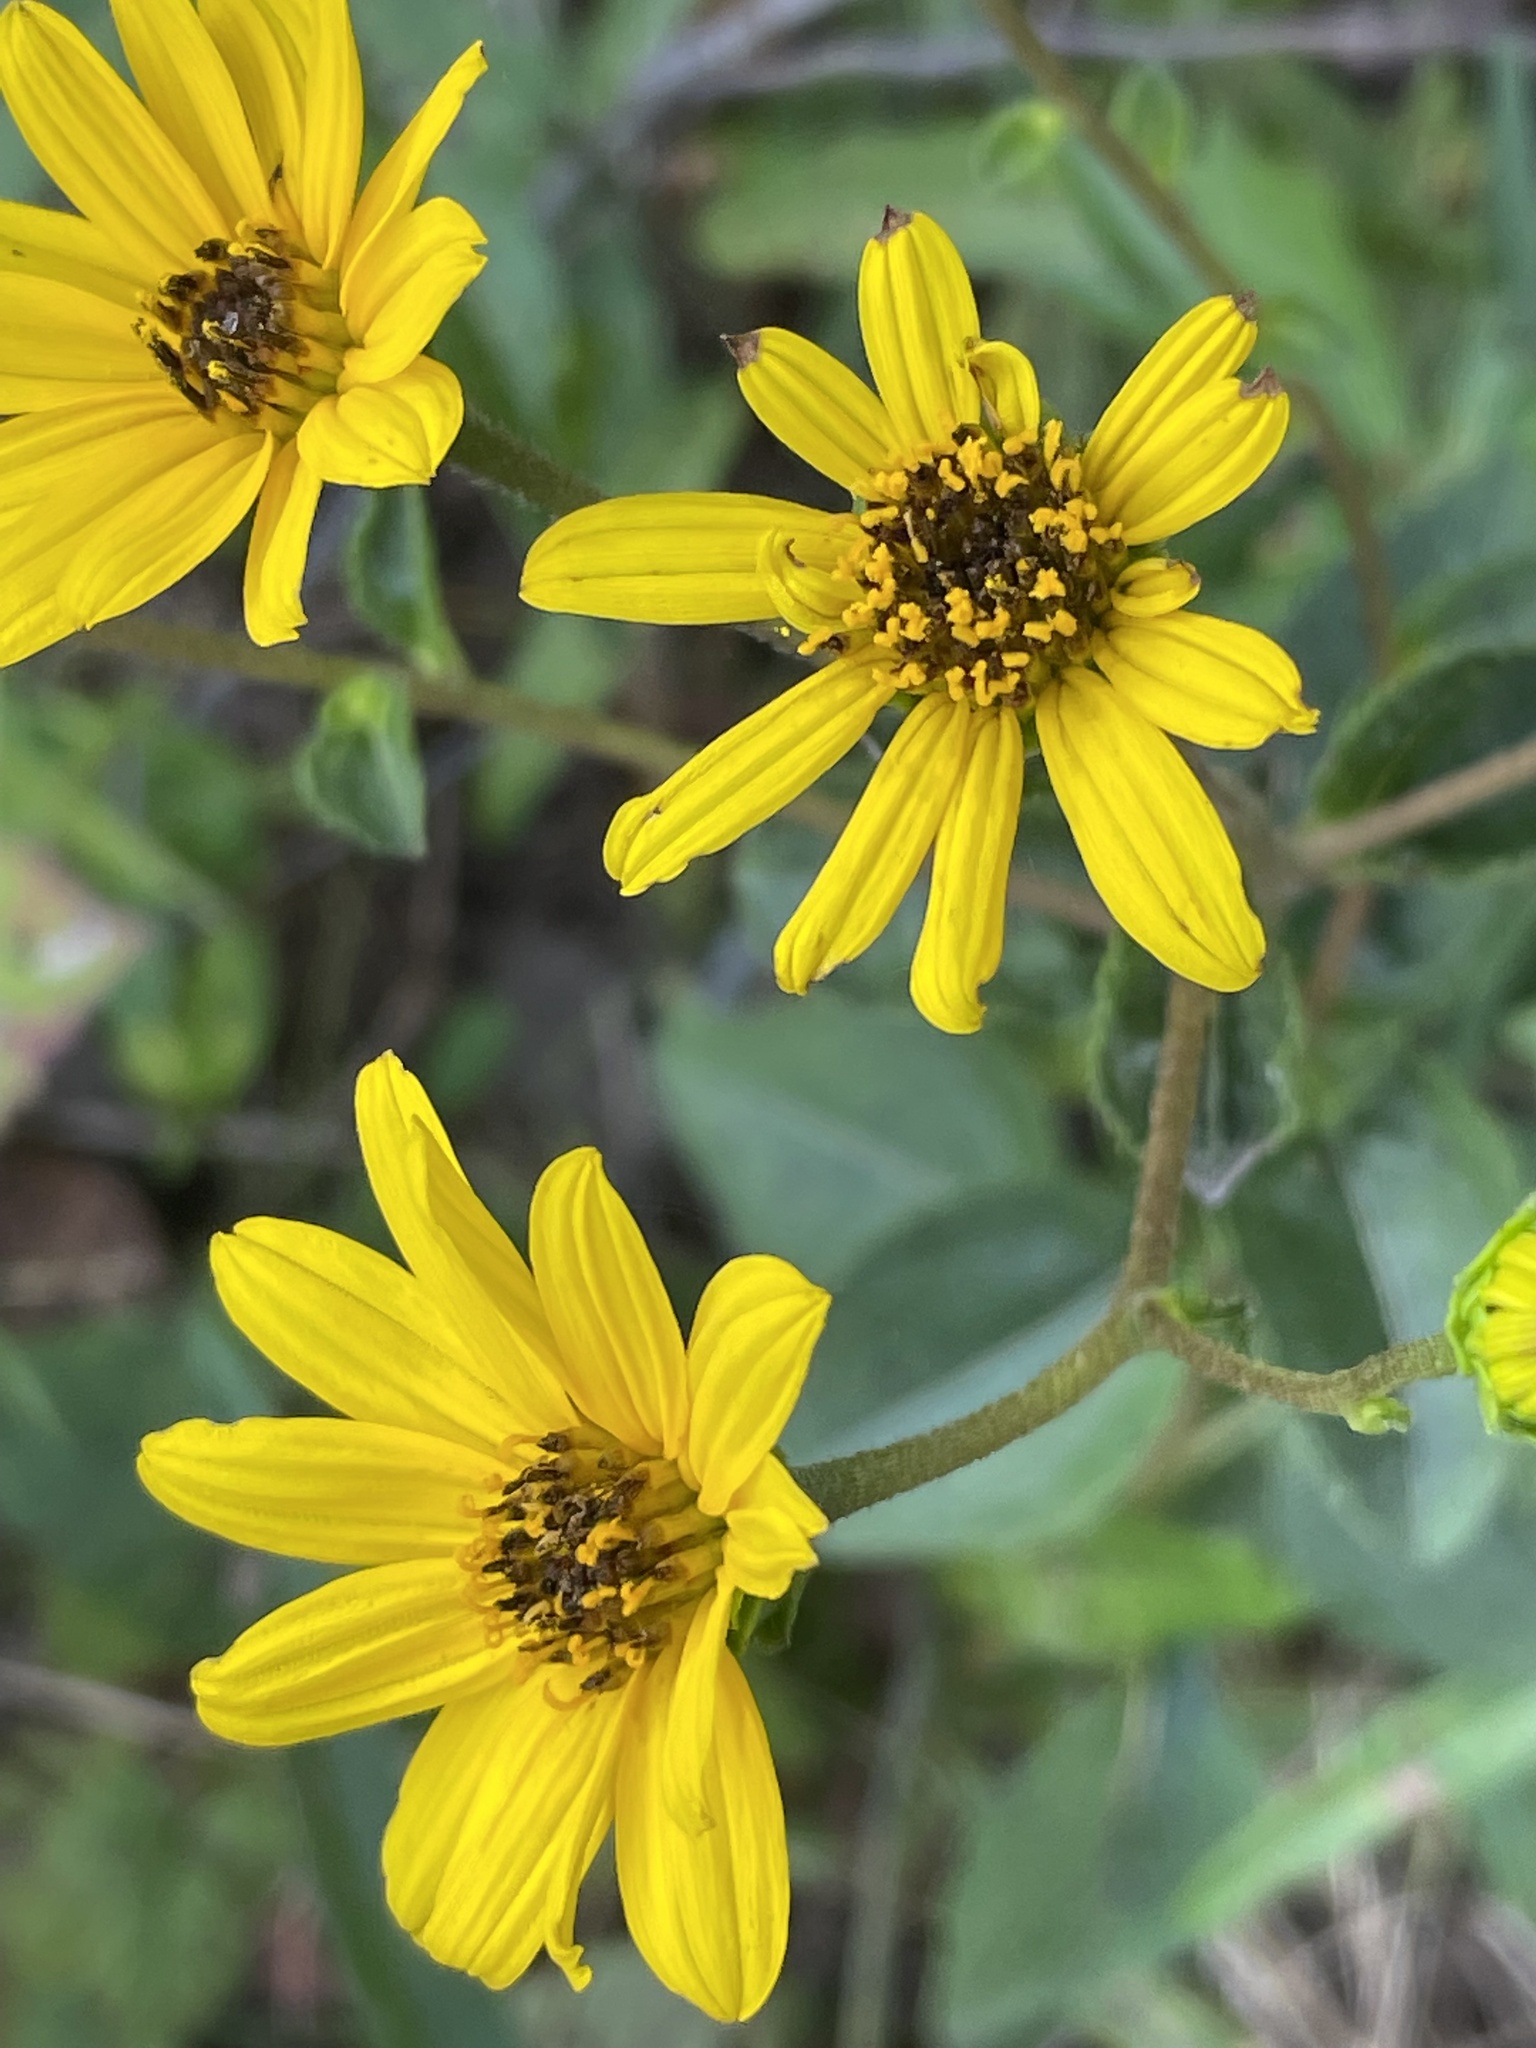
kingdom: Plantae
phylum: Tracheophyta
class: Magnoliopsida
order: Asterales
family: Asteraceae
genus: Helianthus
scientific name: Helianthus atrorubens
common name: Dark-eyed sunflower
